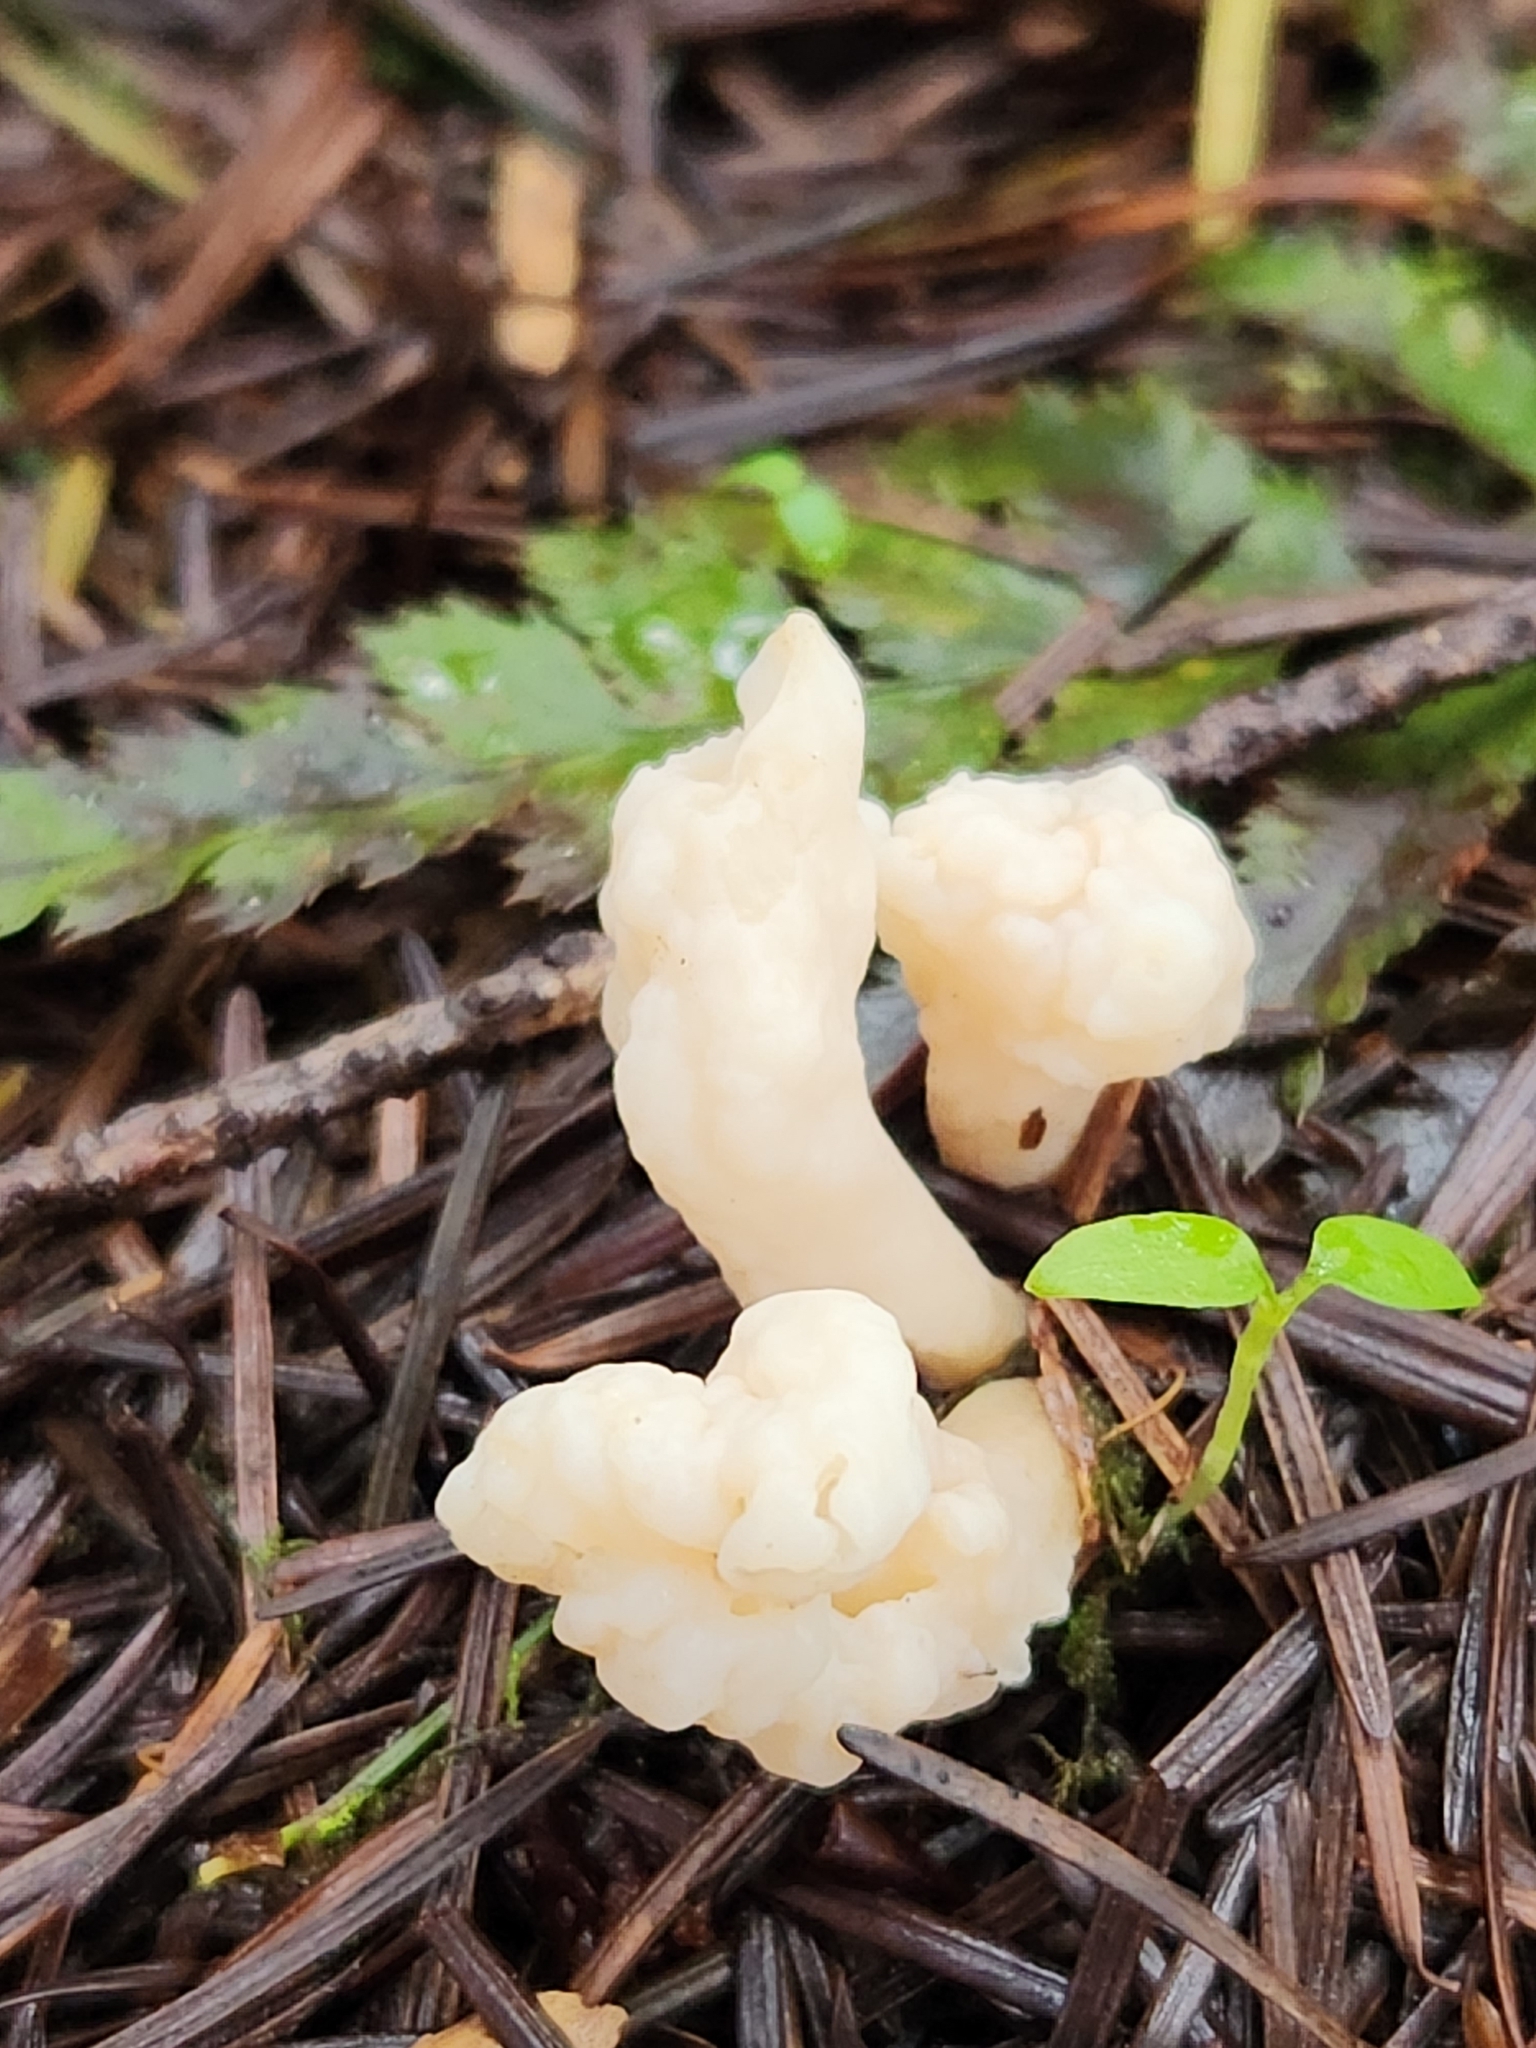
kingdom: Fungi
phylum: Basidiomycota
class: Agaricomycetes
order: Cantharellales
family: Hydnaceae
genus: Clavulina
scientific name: Clavulina rugosa
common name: Wrinkled club
